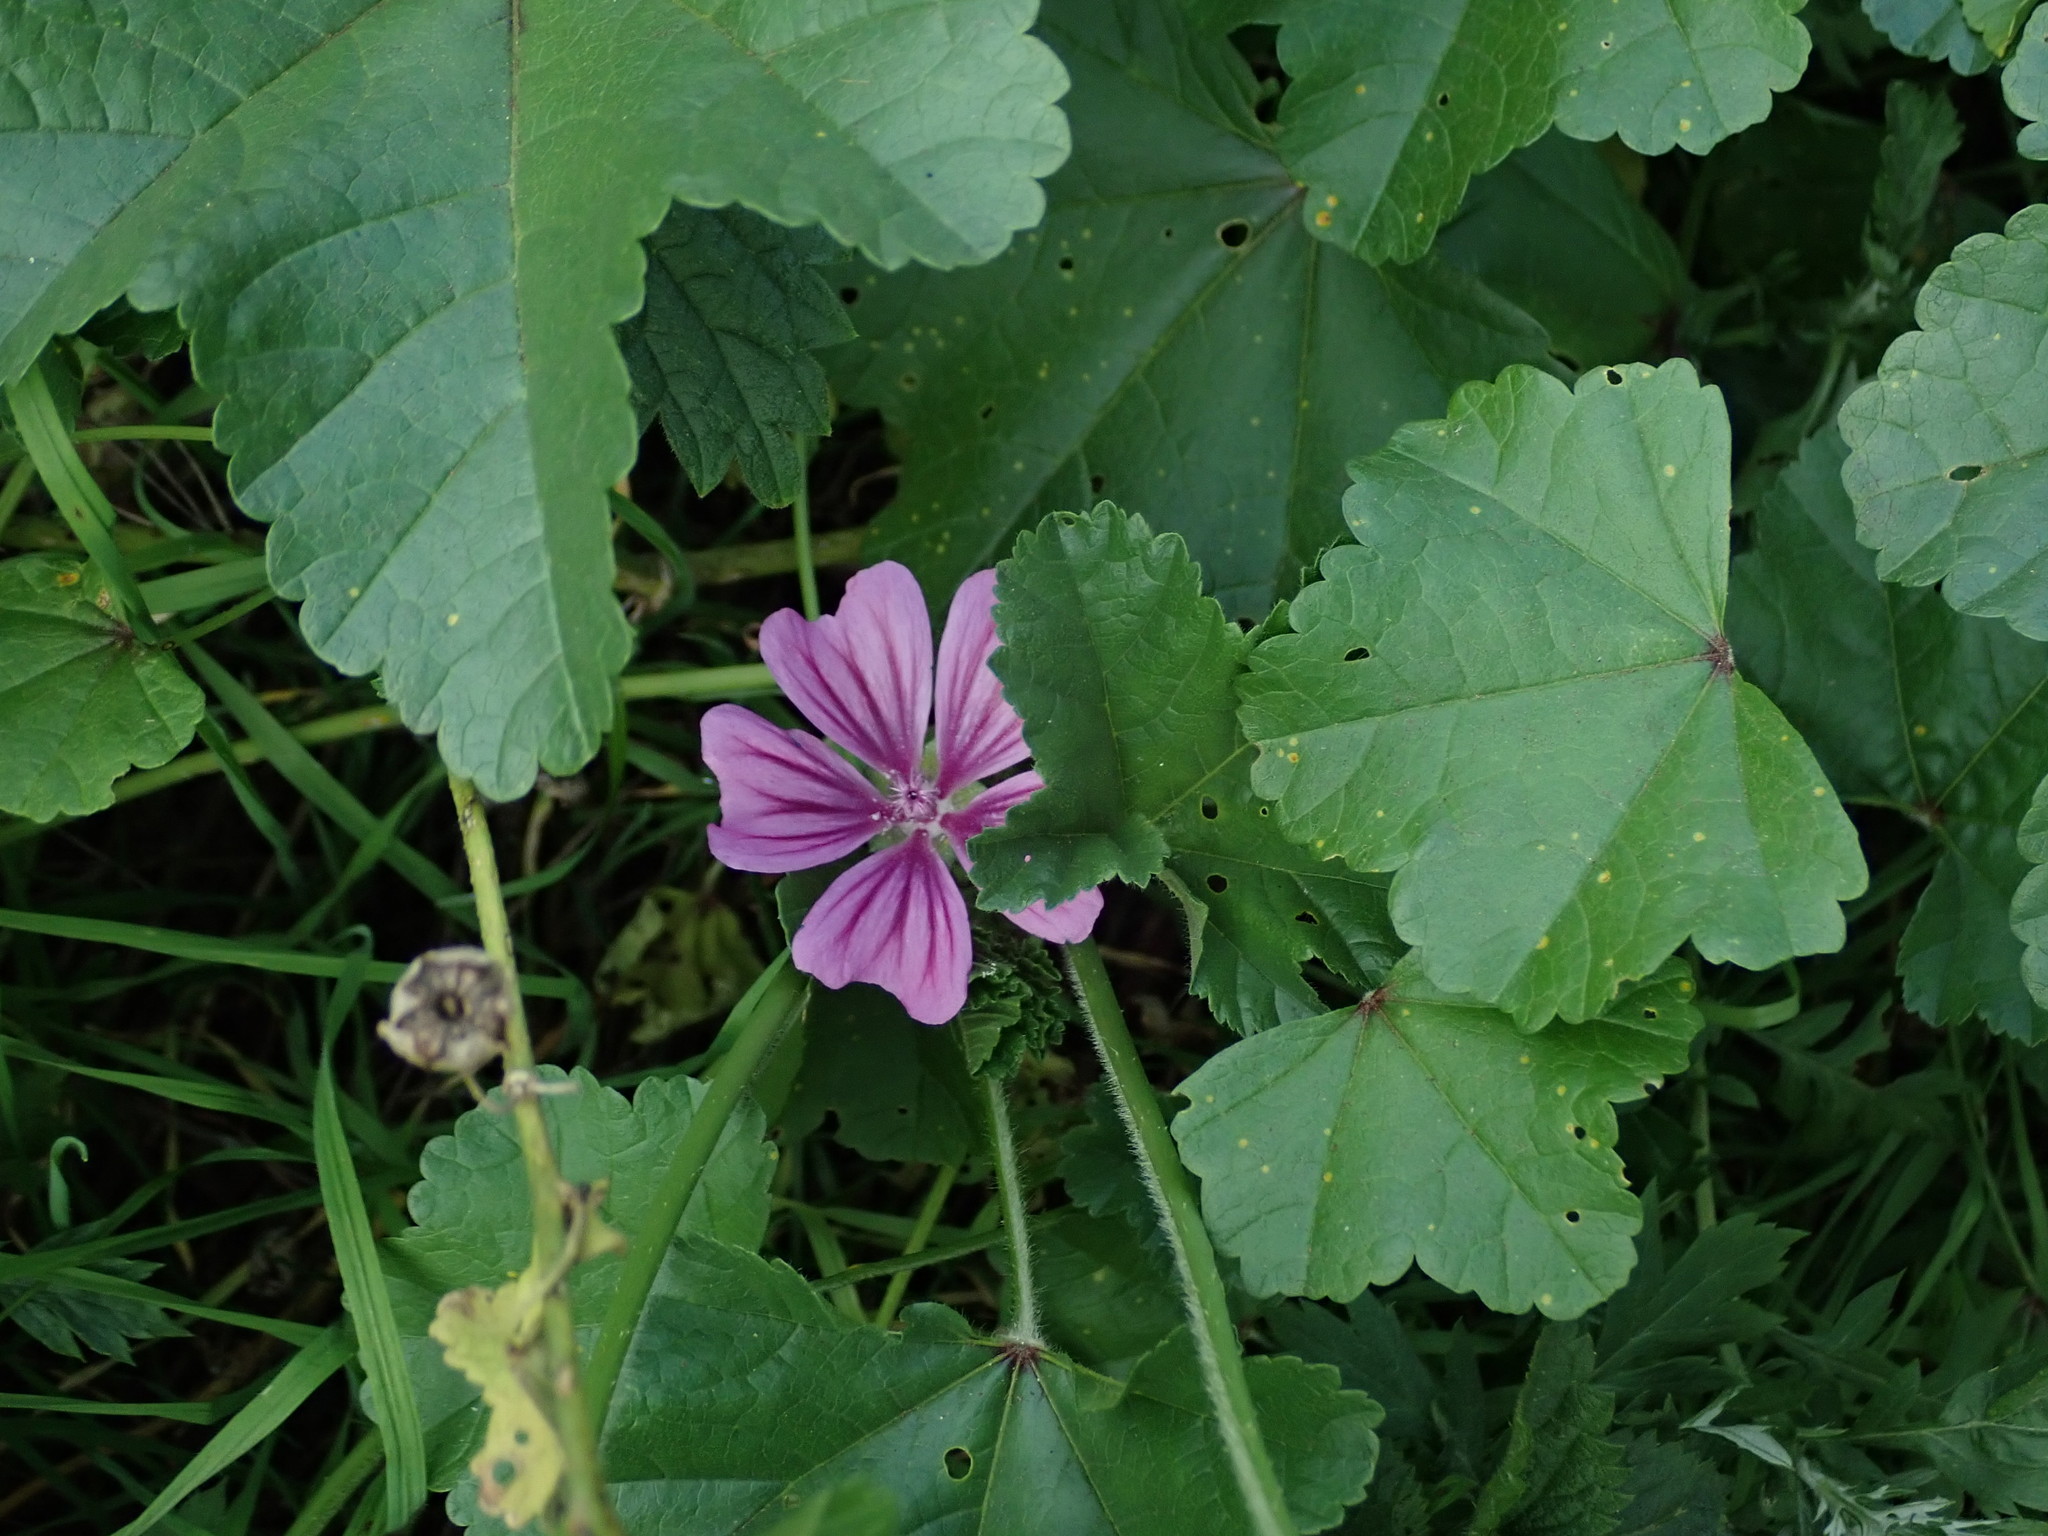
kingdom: Plantae
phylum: Tracheophyta
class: Magnoliopsida
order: Malvales
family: Malvaceae
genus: Malva
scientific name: Malva sylvestris
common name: Common mallow
